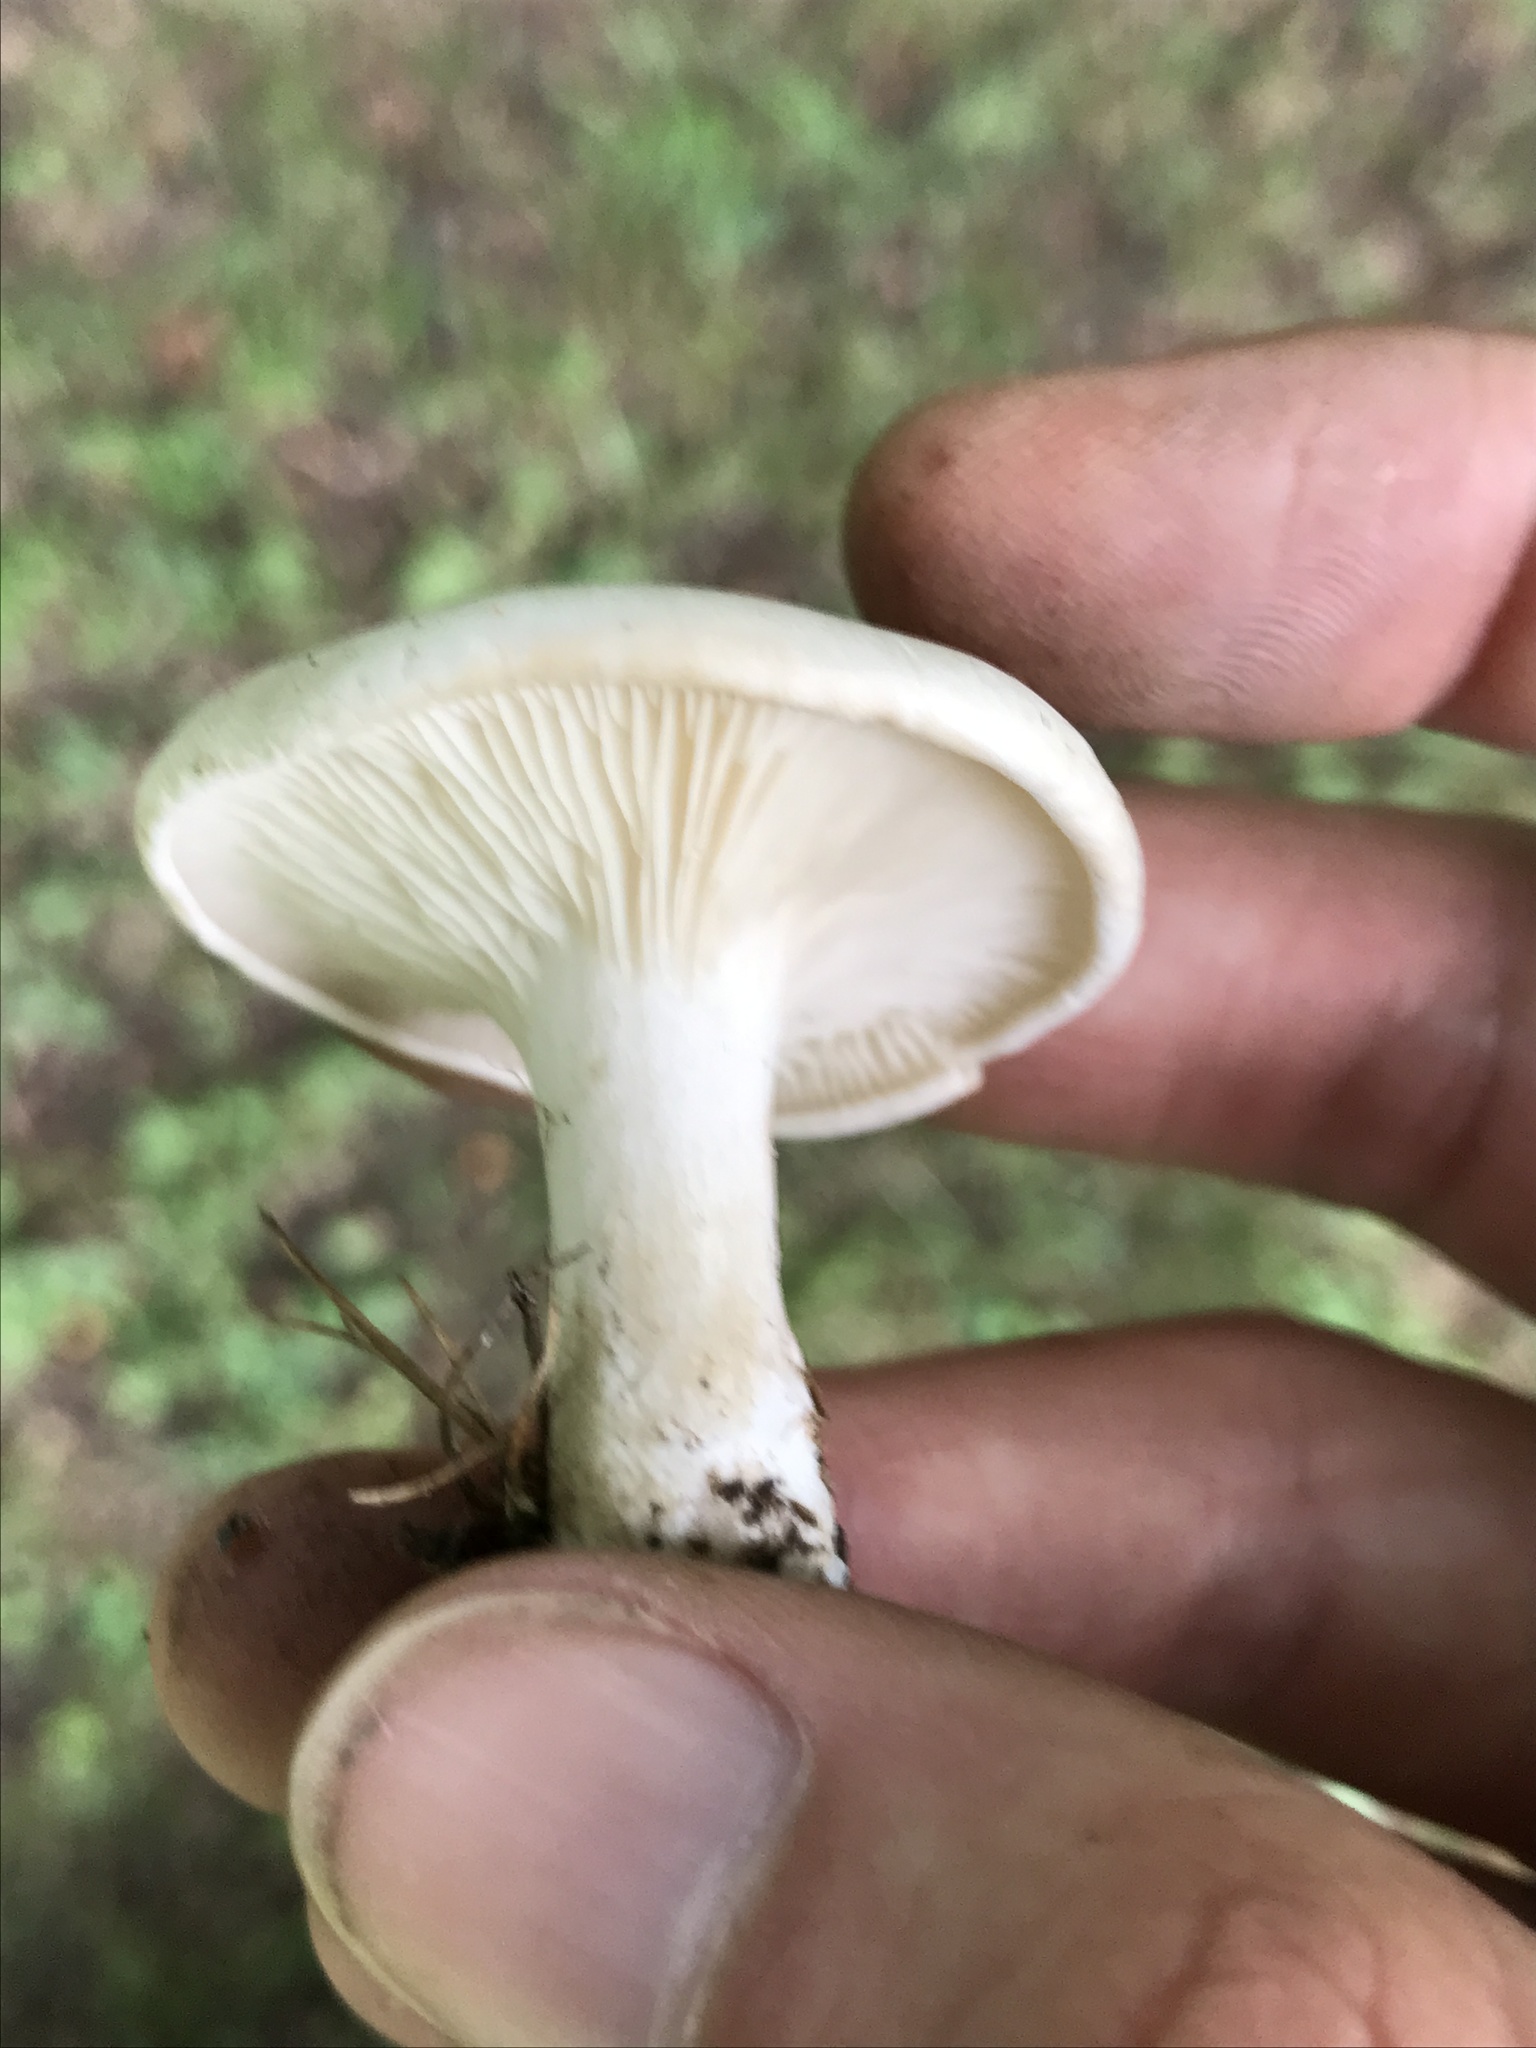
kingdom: Fungi
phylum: Basidiomycota
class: Agaricomycetes
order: Agaricales
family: Entolomataceae
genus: Clitopilus
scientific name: Clitopilus prunulus
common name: The miller
